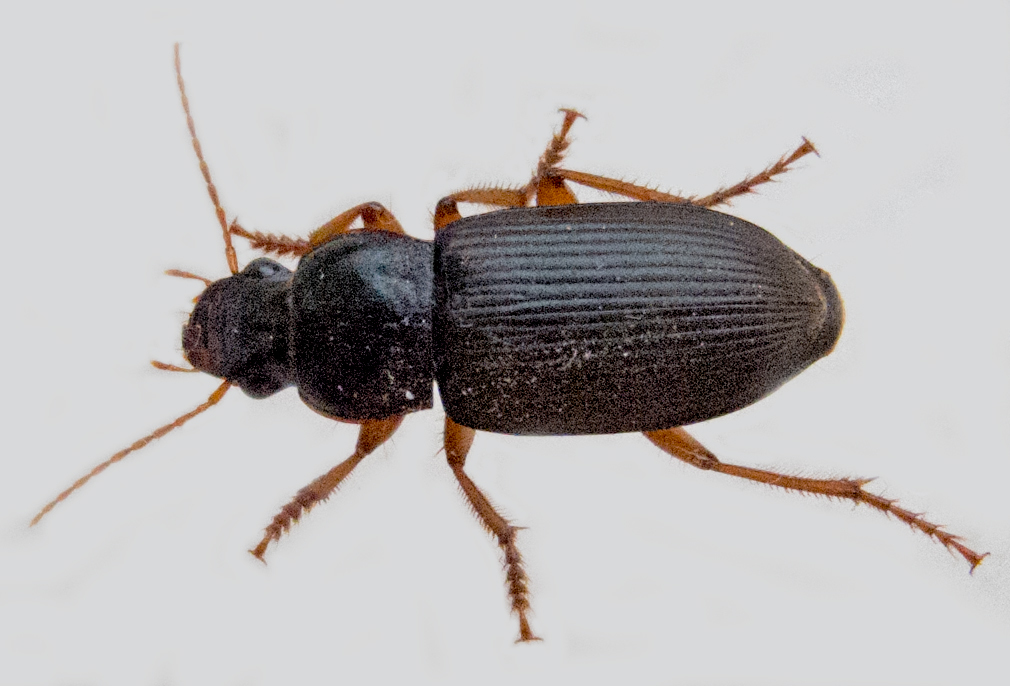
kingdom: Animalia
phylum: Arthropoda
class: Insecta
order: Coleoptera
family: Carabidae
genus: Harpalus
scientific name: Harpalus rufipes
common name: Strawberry harp ground beetle
